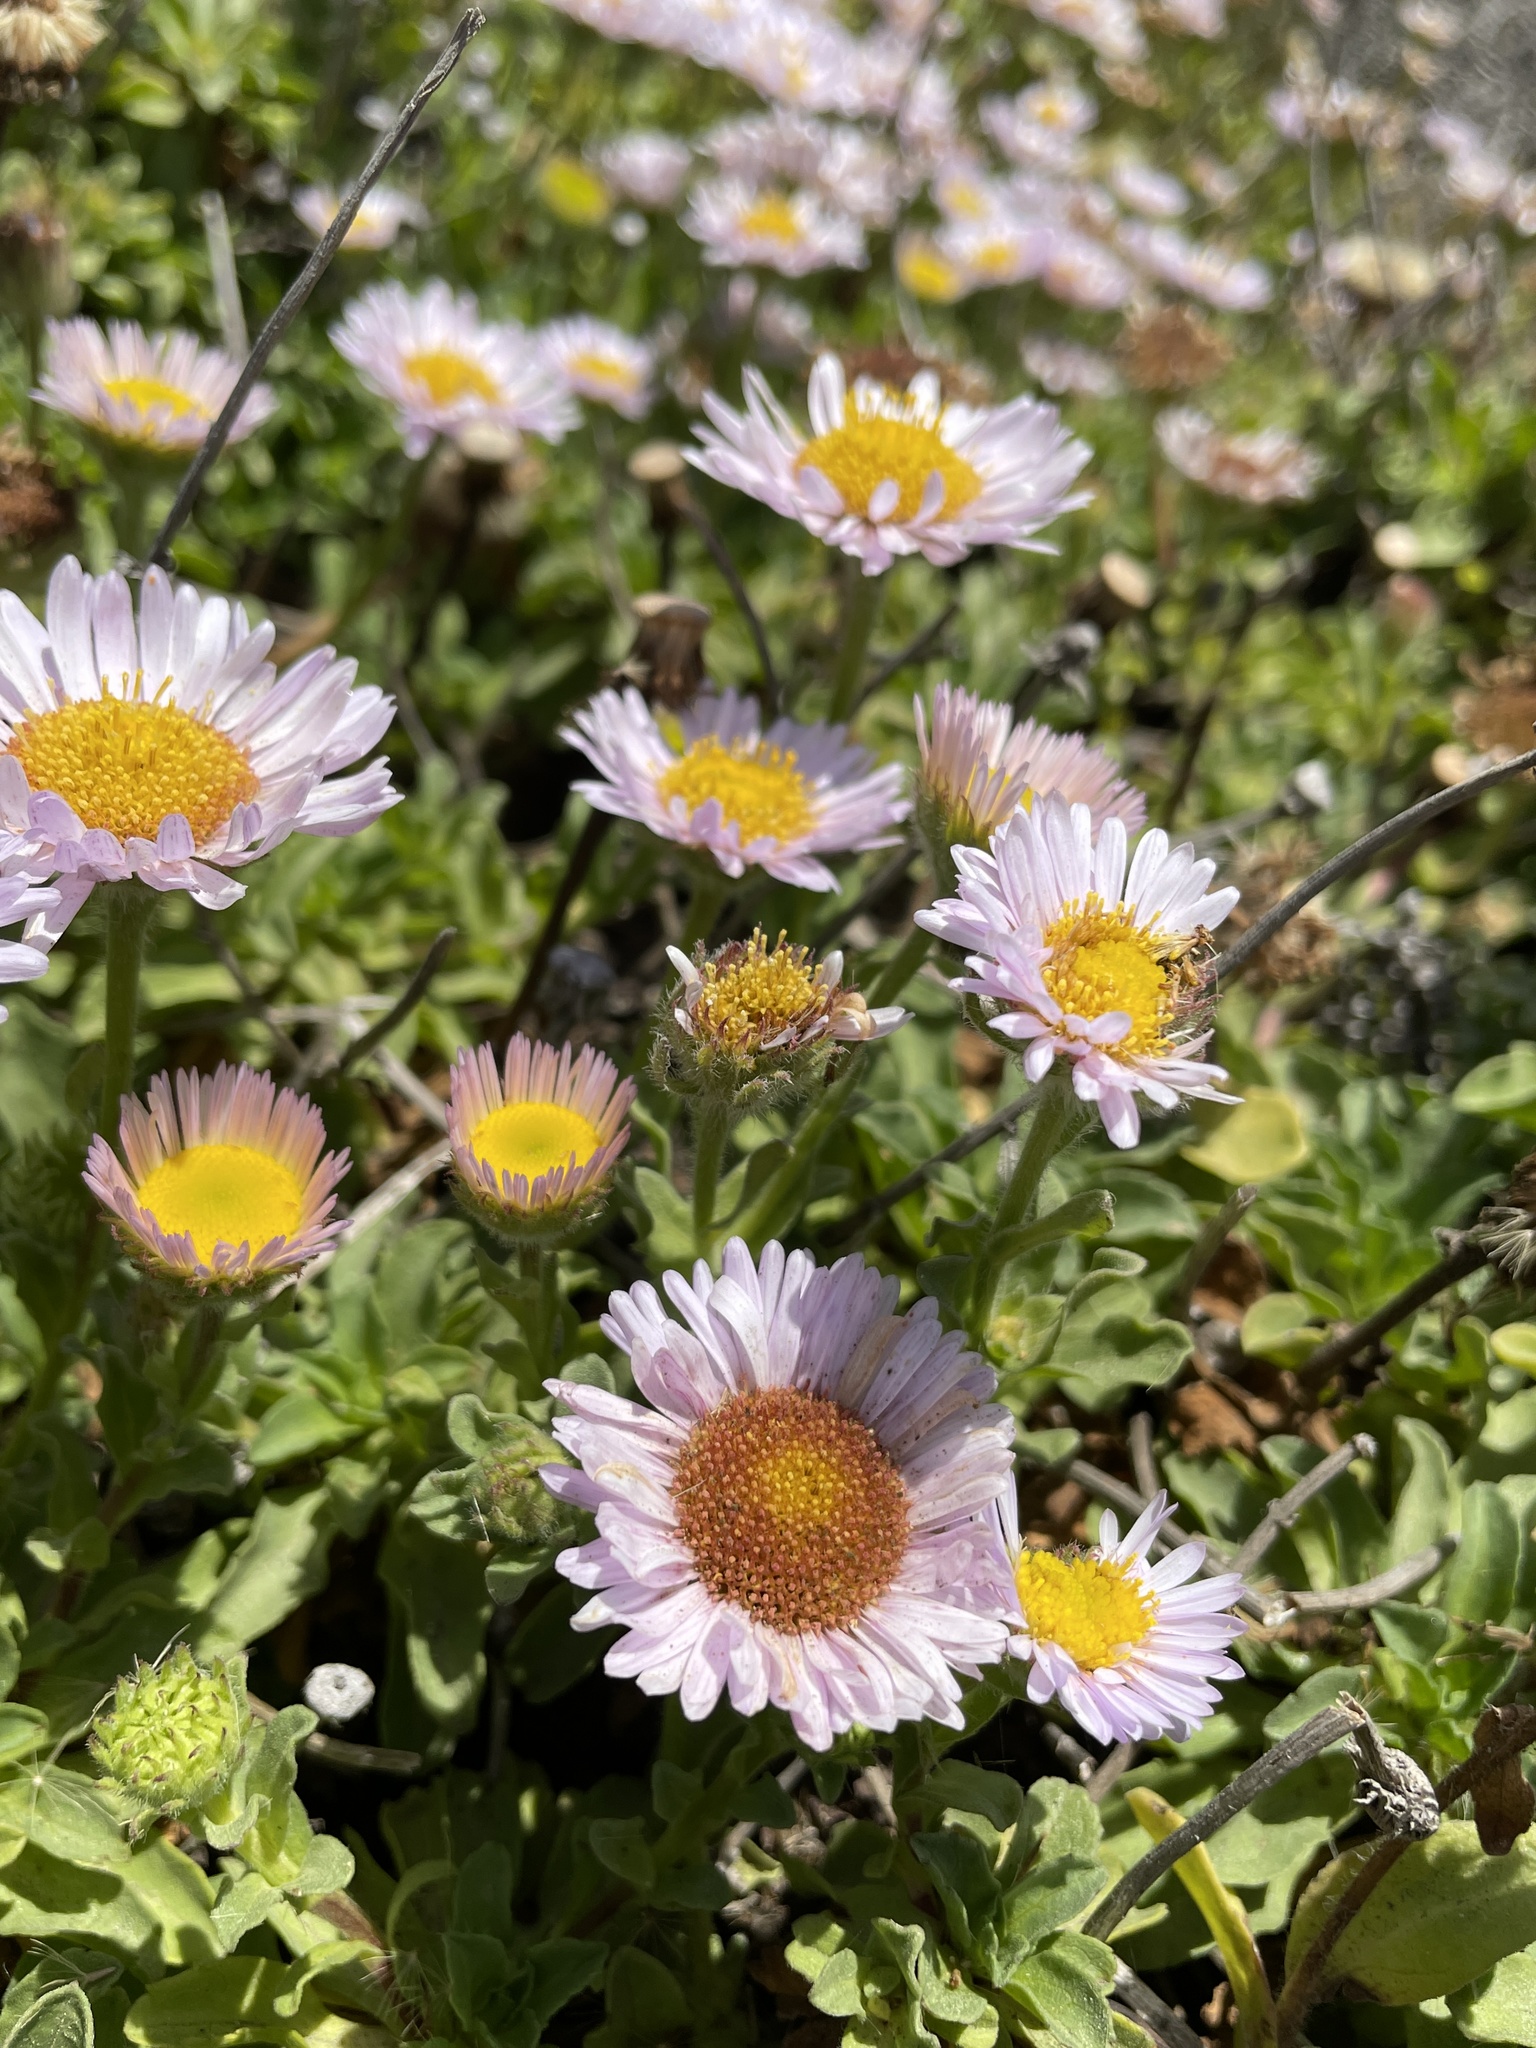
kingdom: Plantae
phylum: Tracheophyta
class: Magnoliopsida
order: Asterales
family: Asteraceae
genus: Erigeron
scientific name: Erigeron glaucus
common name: Seaside daisy
